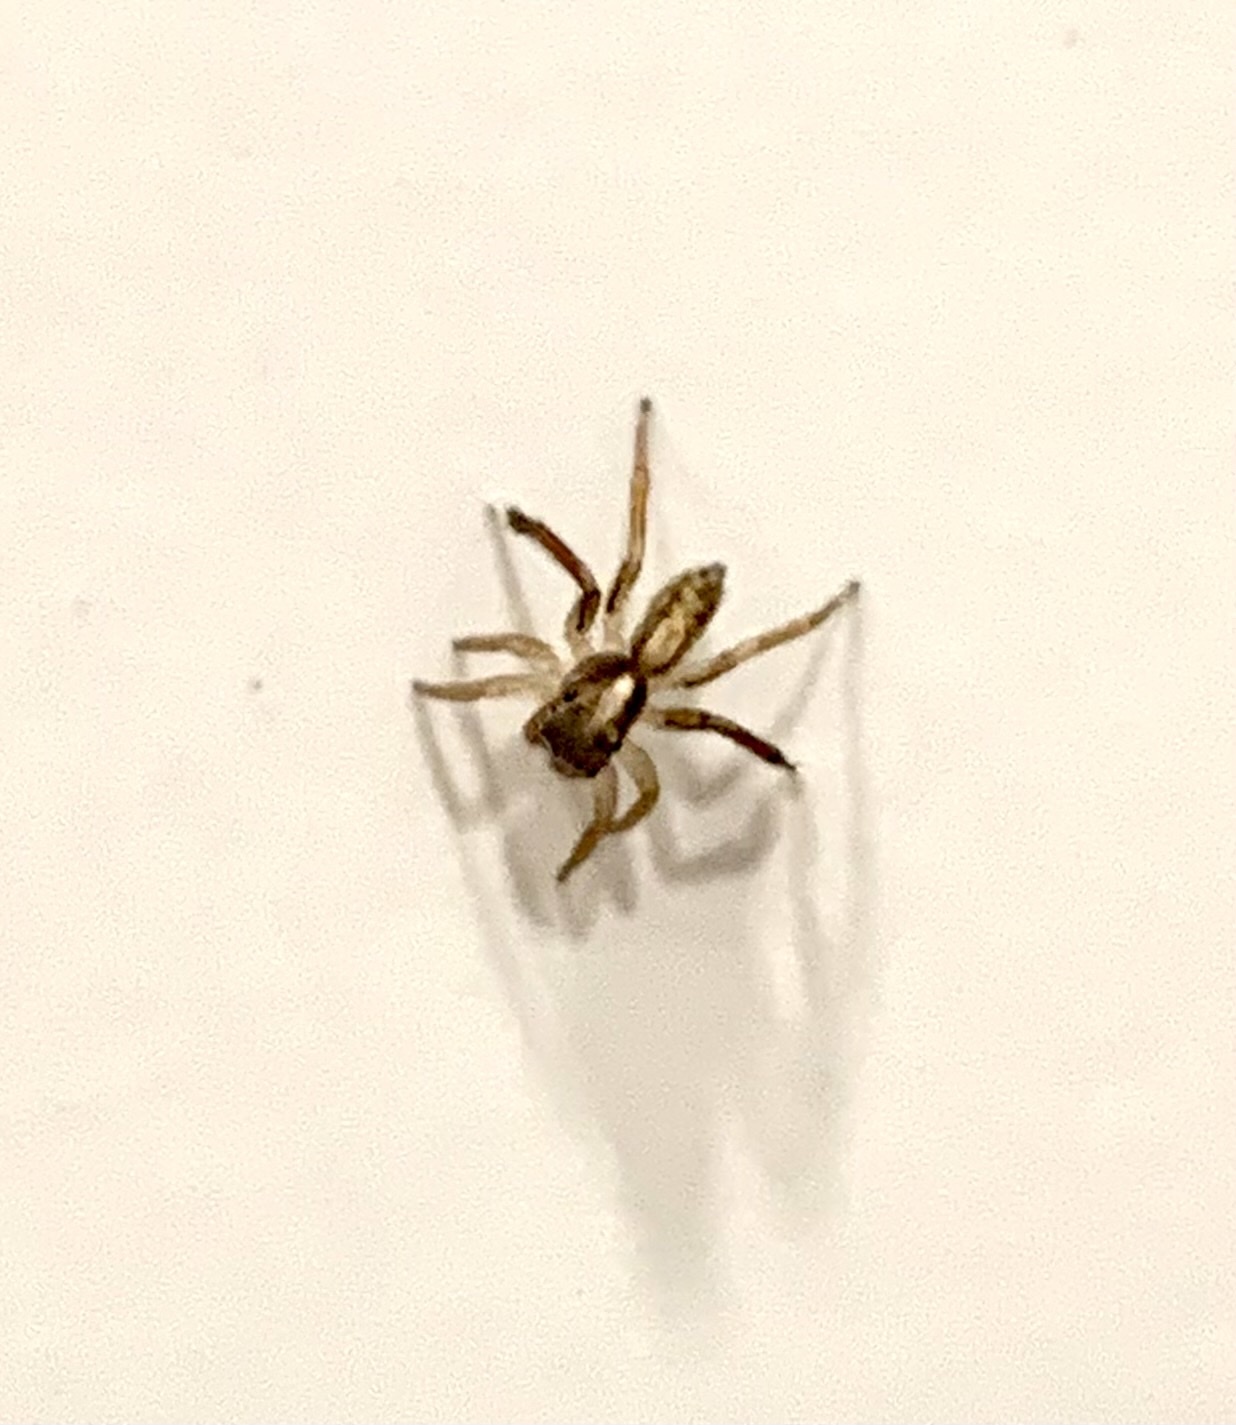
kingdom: Animalia
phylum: Arthropoda
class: Arachnida
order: Araneae
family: Salticidae
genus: Saitis
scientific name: Saitis tauricus
